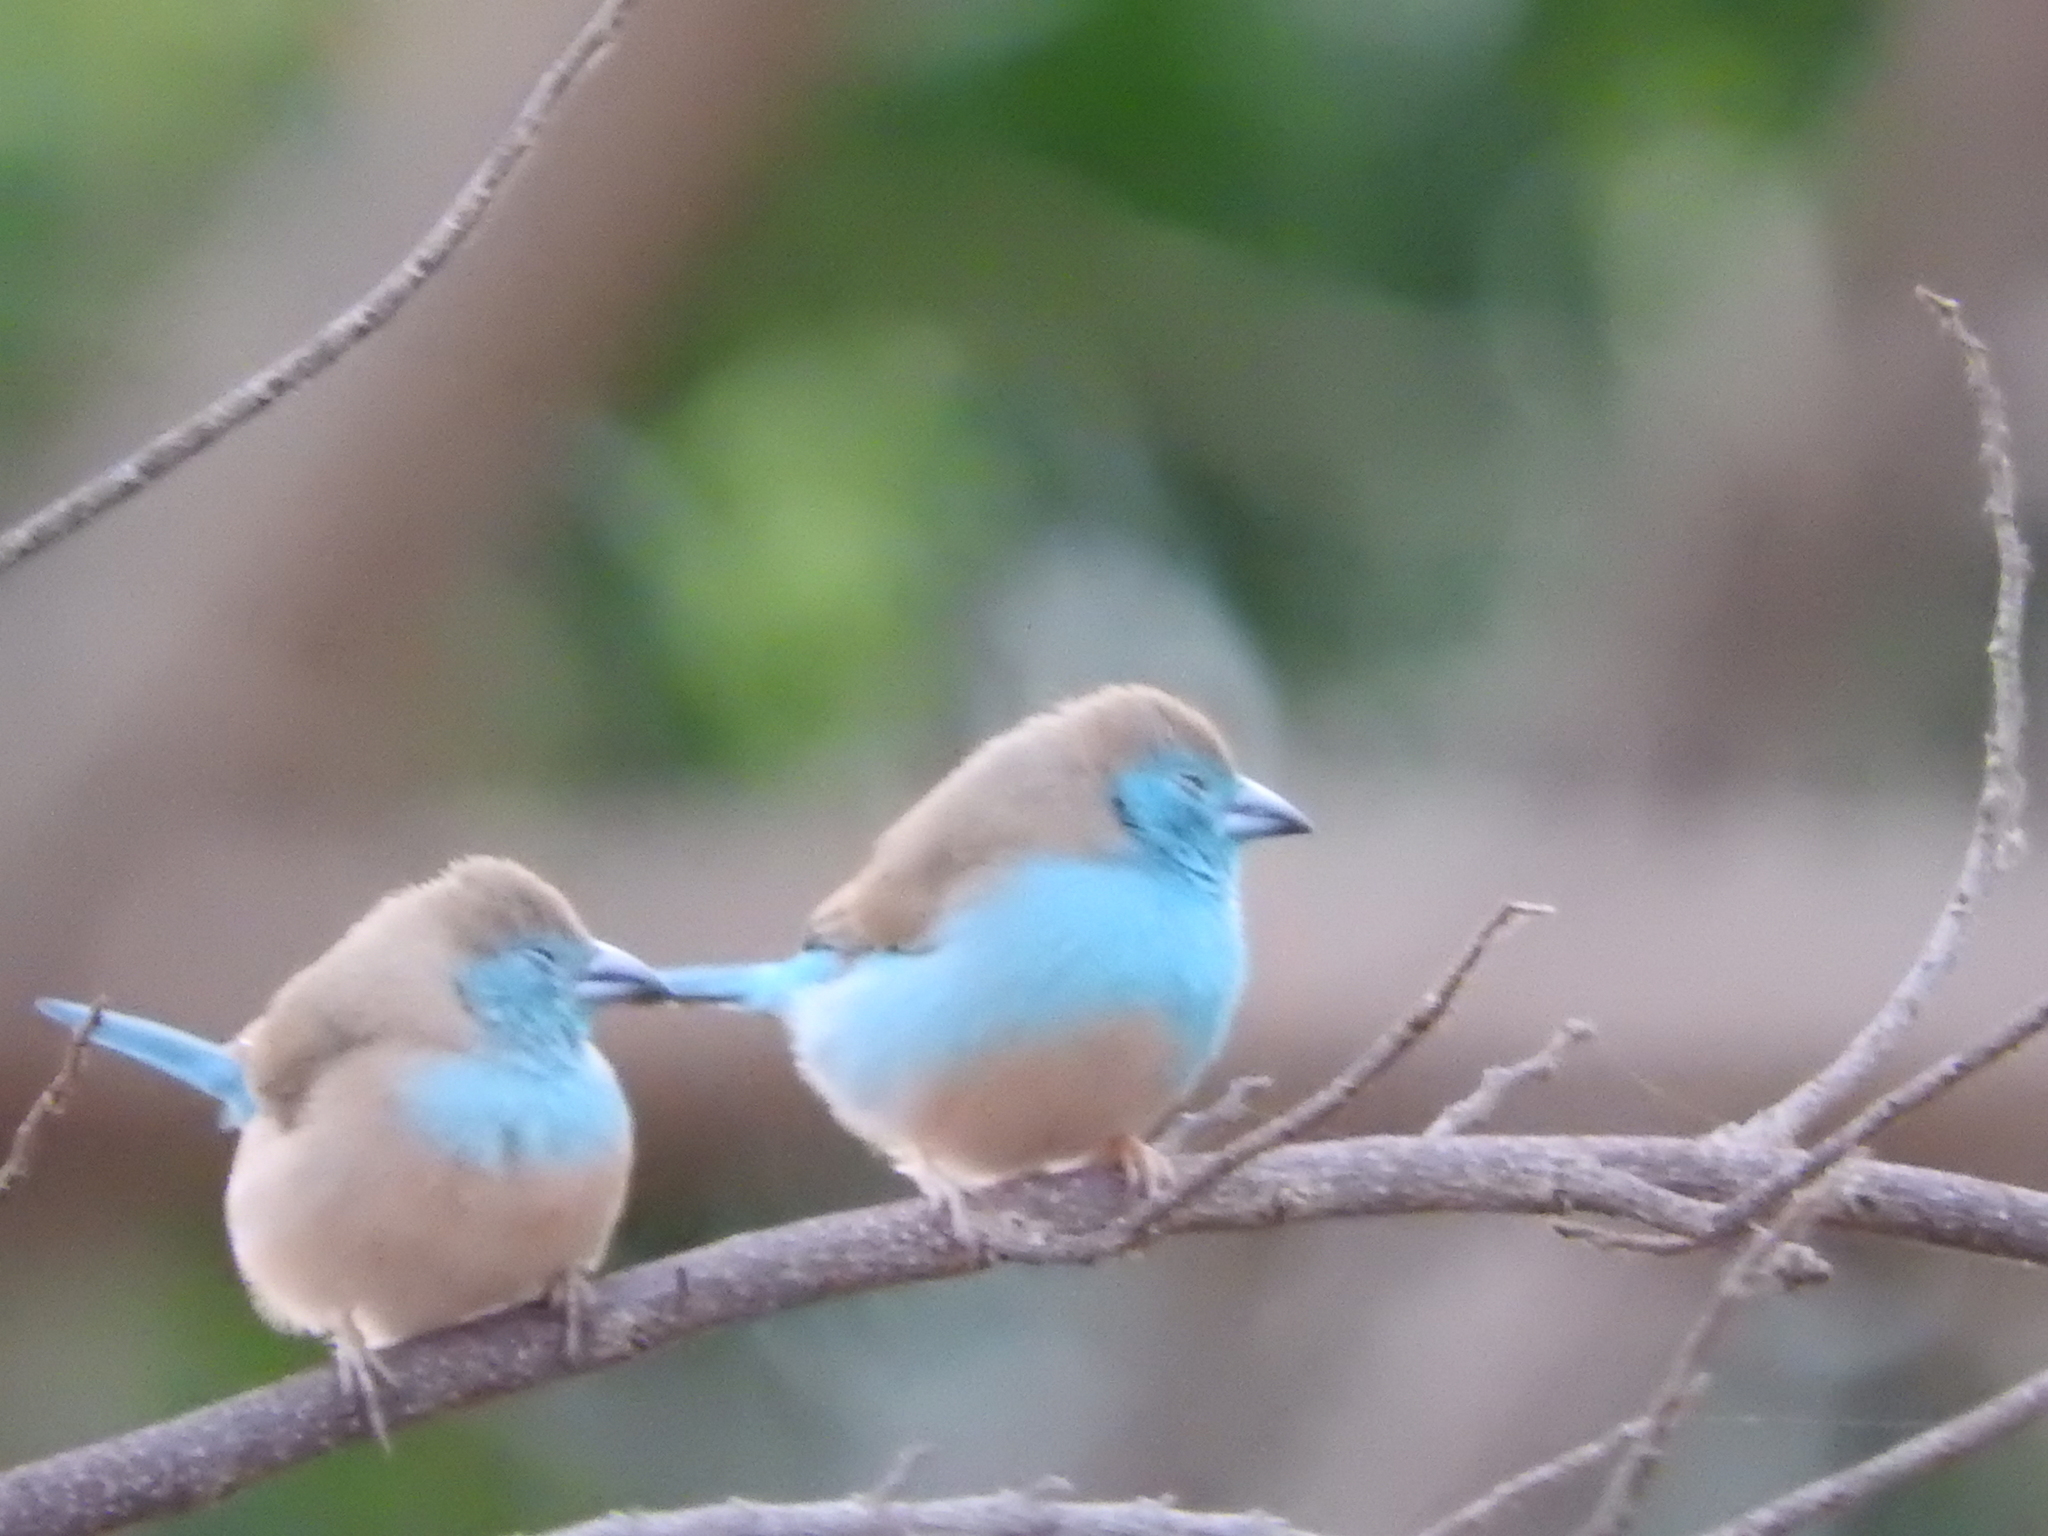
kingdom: Animalia
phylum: Chordata
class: Aves
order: Passeriformes
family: Estrildidae
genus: Uraeginthus
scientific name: Uraeginthus angolensis
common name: Blue waxbill
